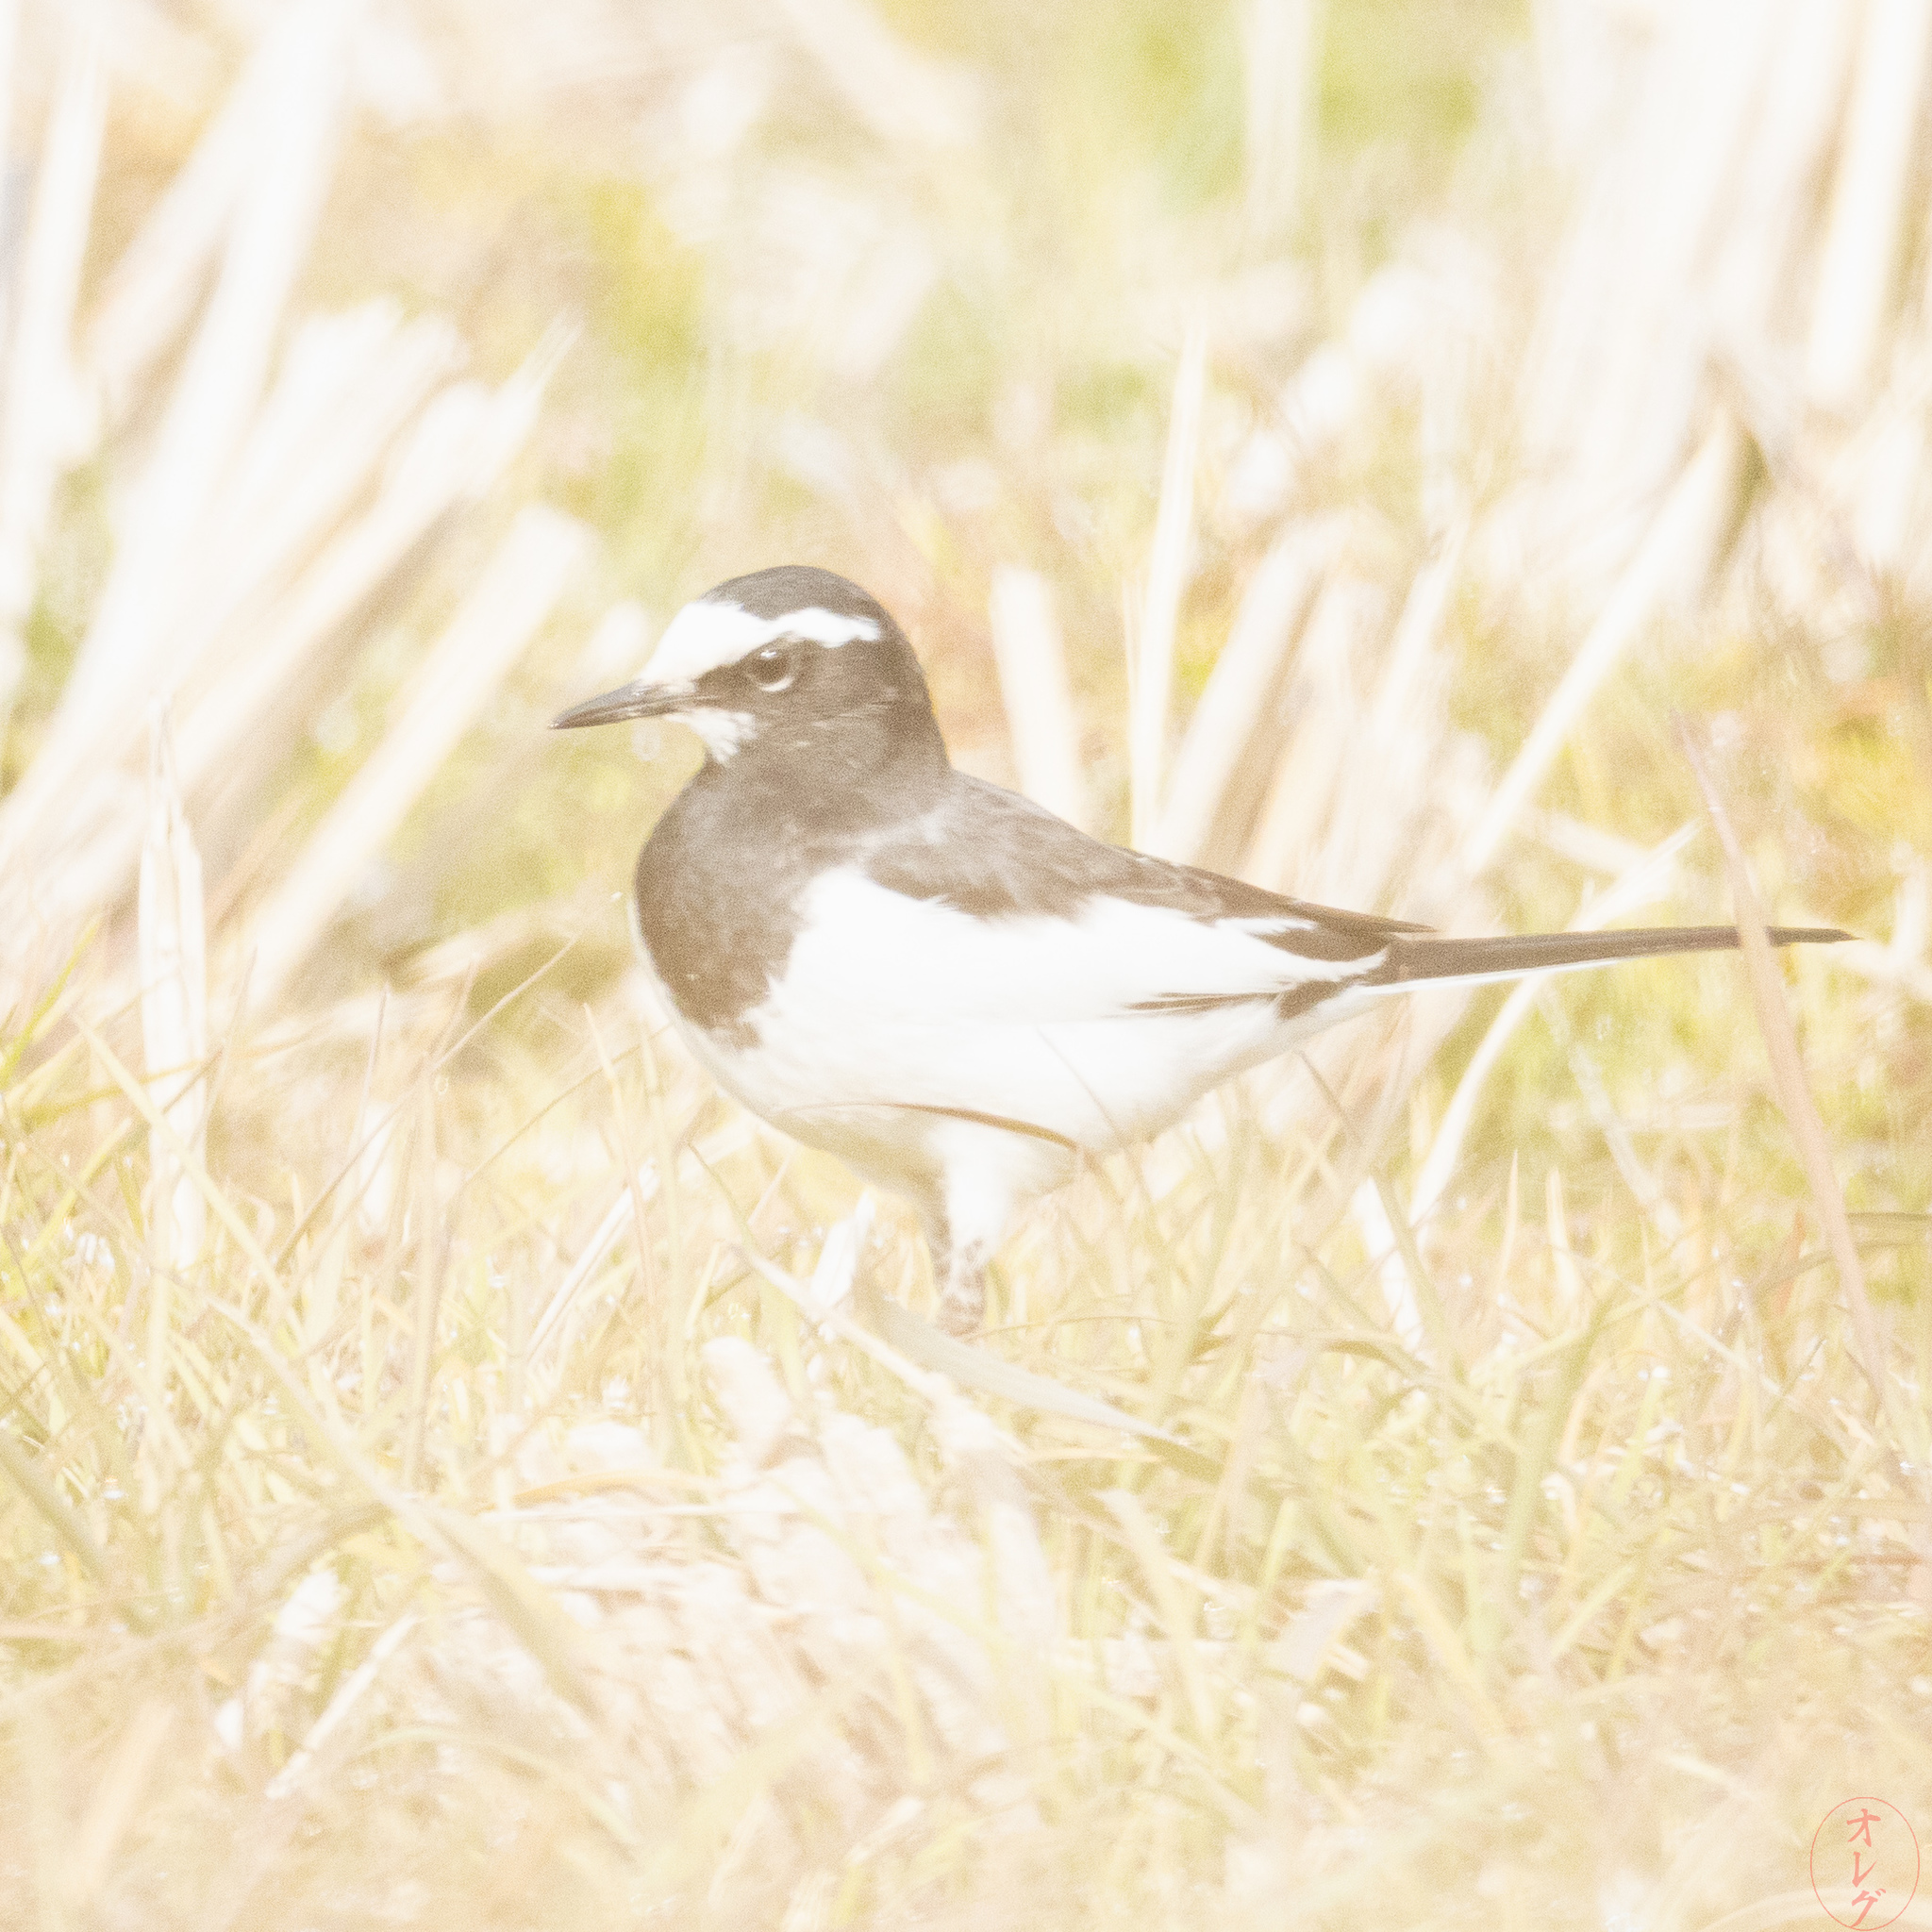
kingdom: Animalia
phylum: Chordata
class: Aves
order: Passeriformes
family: Motacillidae
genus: Motacilla
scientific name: Motacilla grandis
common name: Japanese wagtail
